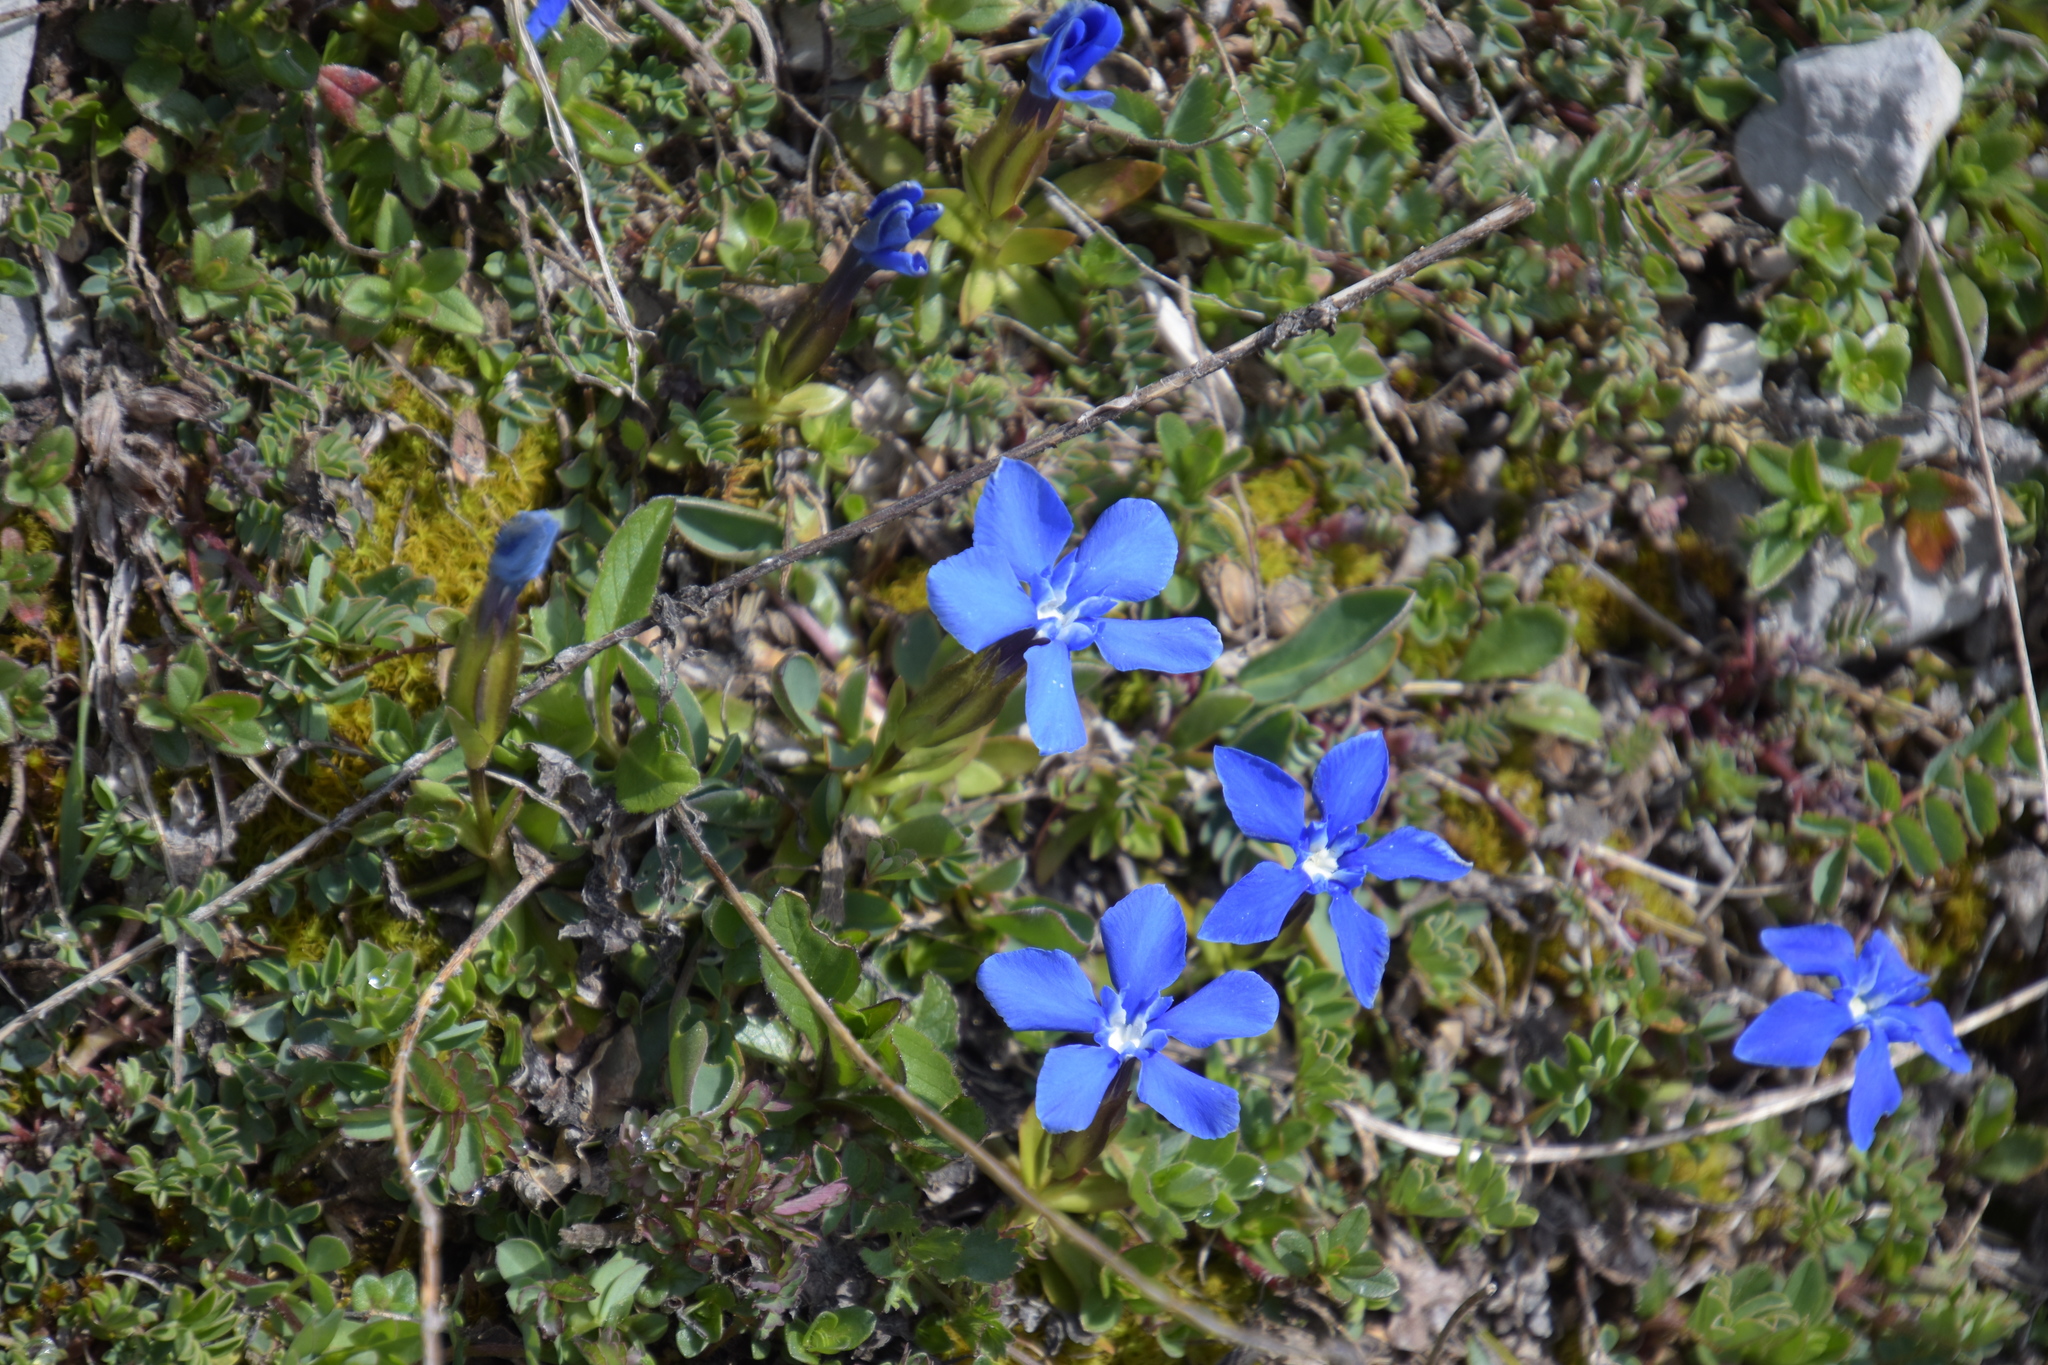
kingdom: Plantae
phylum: Tracheophyta
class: Magnoliopsida
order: Gentianales
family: Gentianaceae
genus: Gentiana
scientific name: Gentiana verna
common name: Spring gentian
